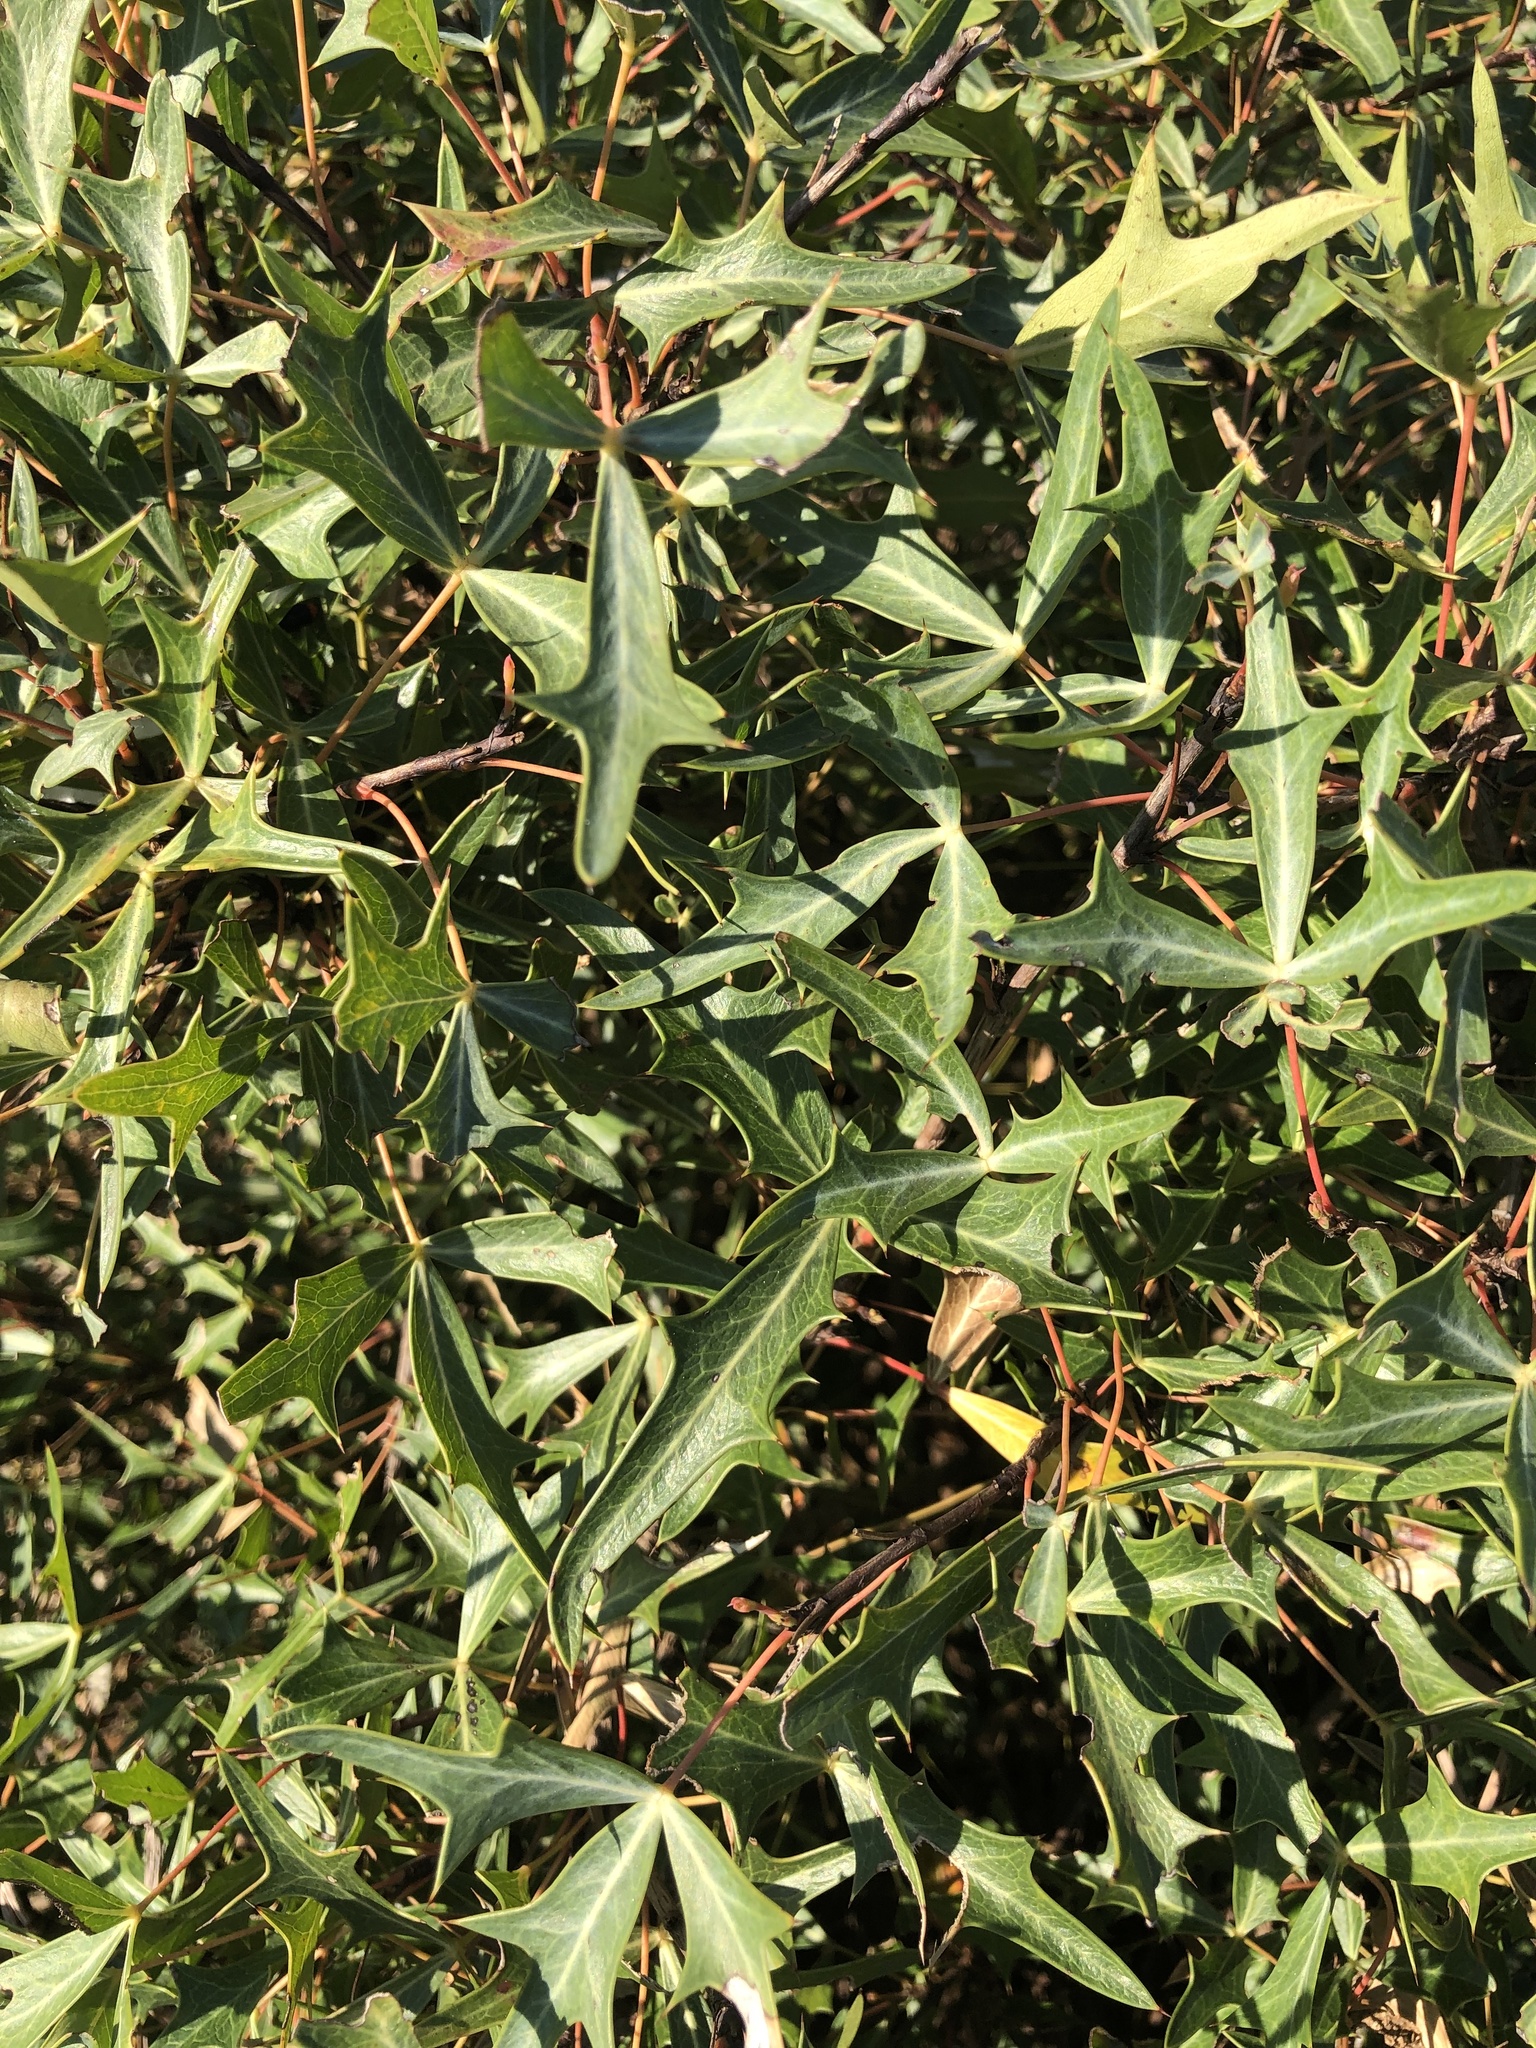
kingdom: Plantae
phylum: Tracheophyta
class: Magnoliopsida
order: Ranunculales
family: Berberidaceae
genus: Alloberberis
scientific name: Alloberberis trifoliolata
